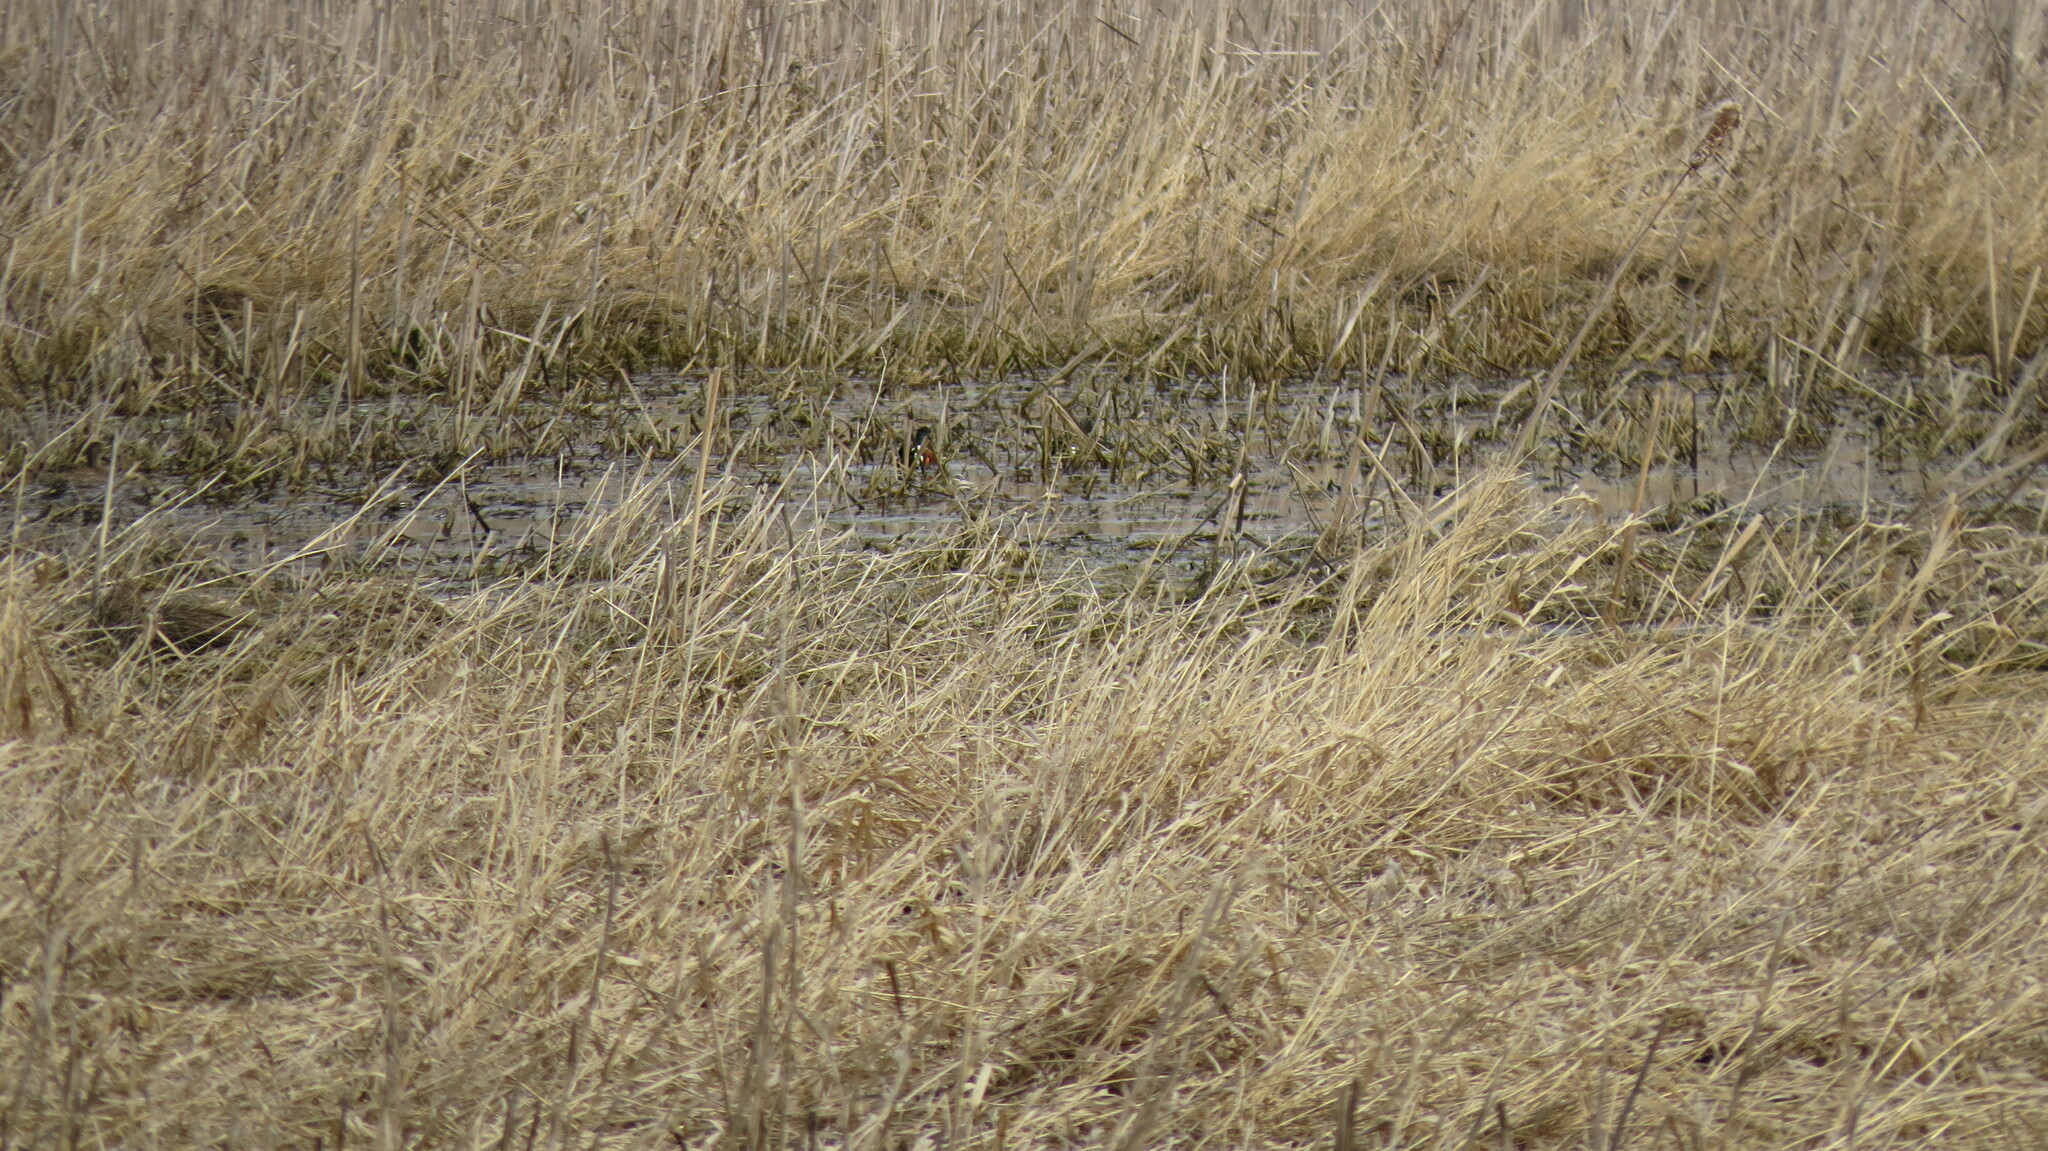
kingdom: Animalia
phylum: Chordata
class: Aves
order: Anseriformes
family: Anatidae
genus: Spatula
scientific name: Spatula clypeata
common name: Northern shoveler
